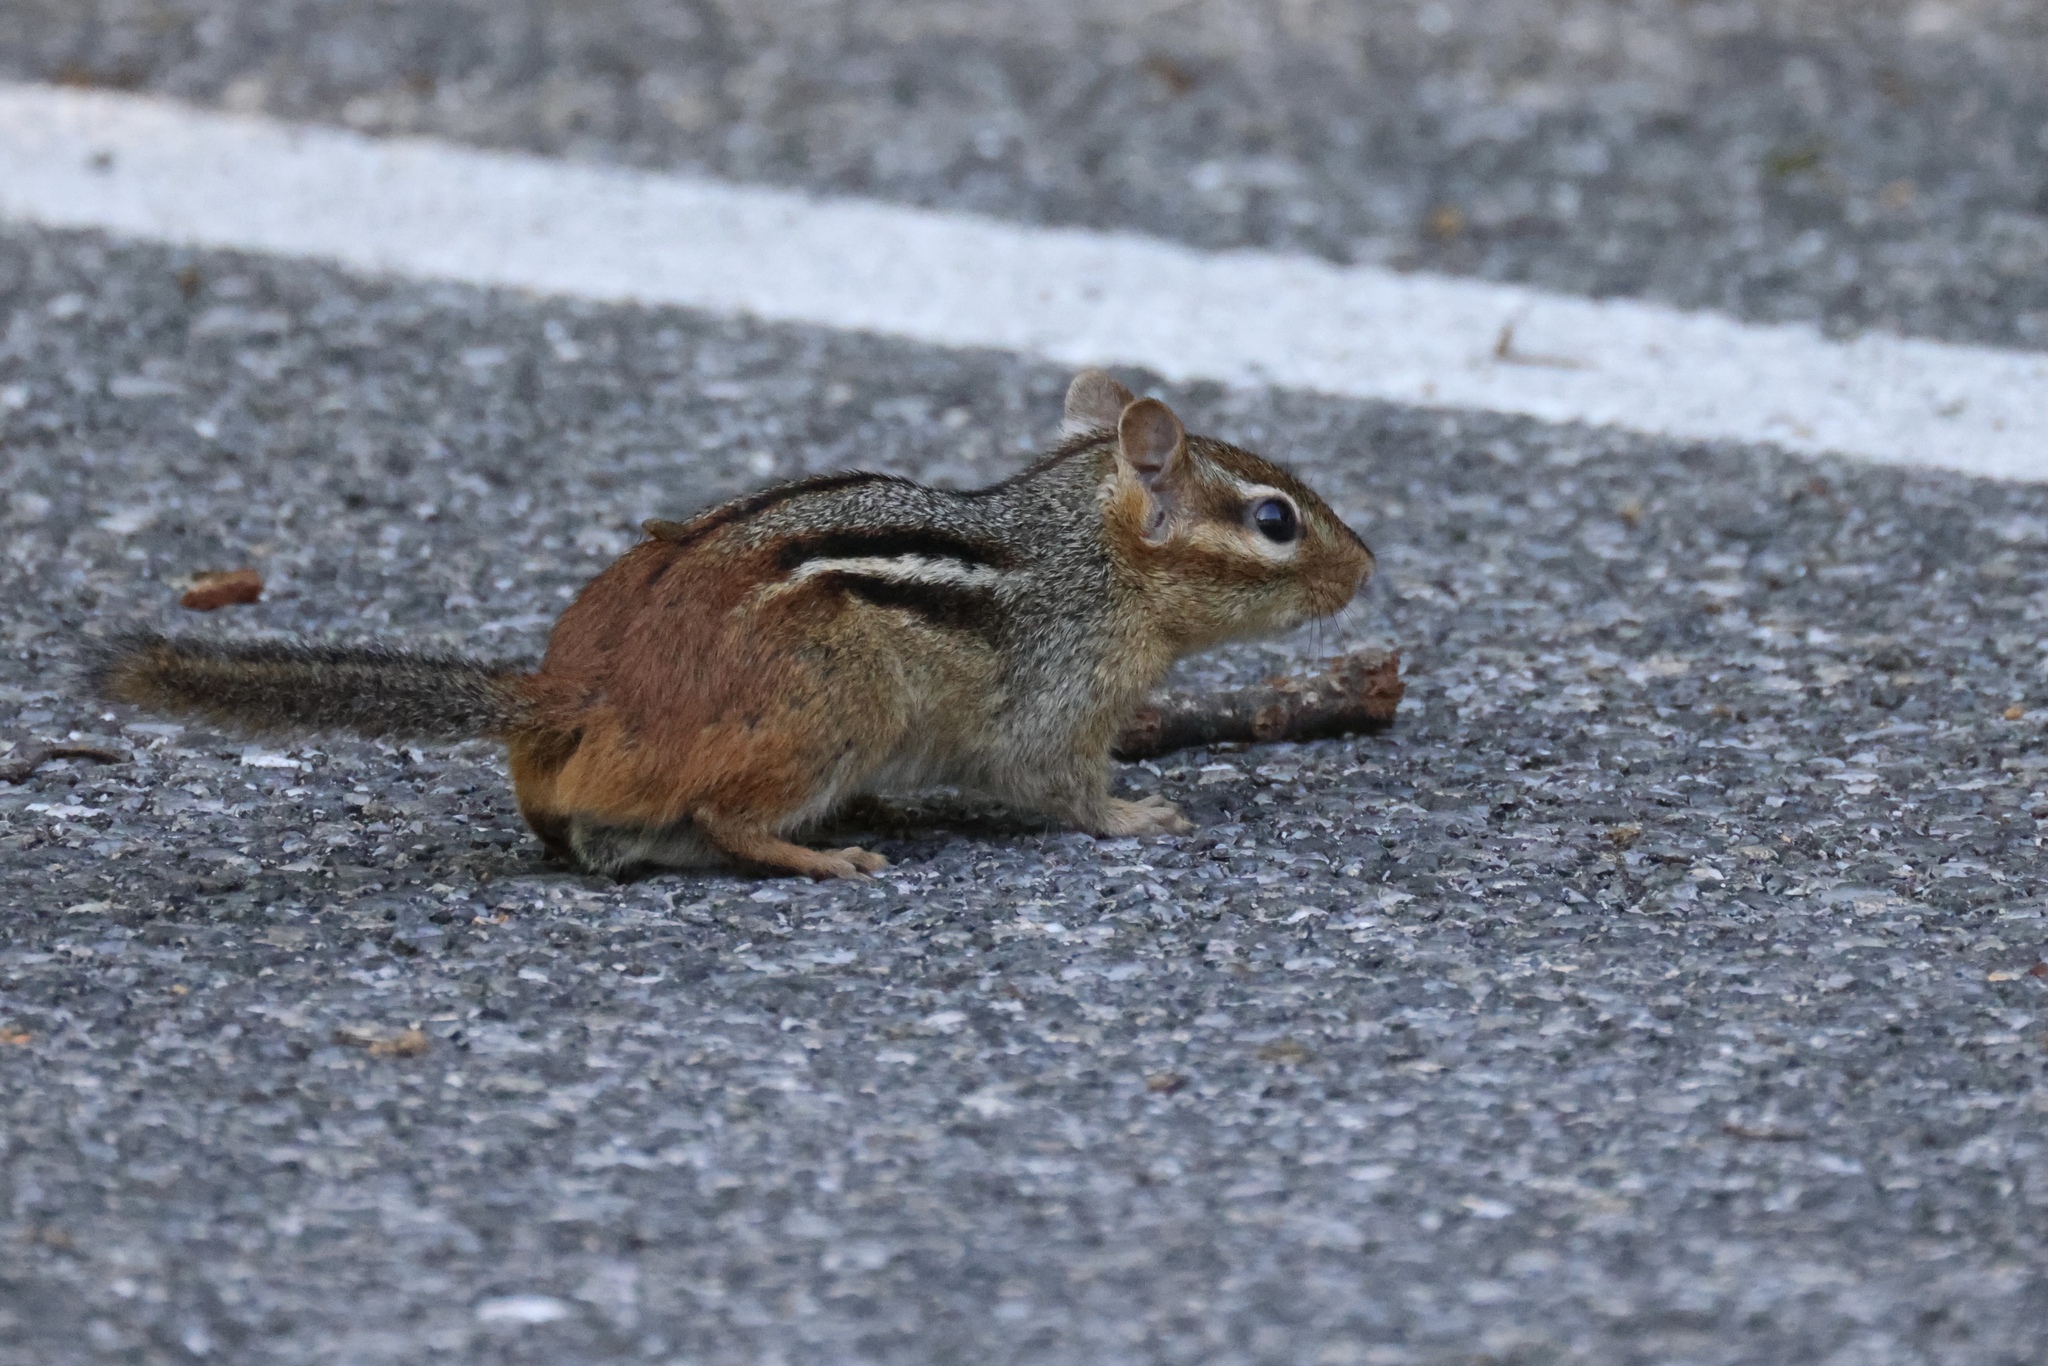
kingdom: Animalia
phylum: Chordata
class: Mammalia
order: Rodentia
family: Sciuridae
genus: Tamias
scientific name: Tamias striatus
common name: Eastern chipmunk
